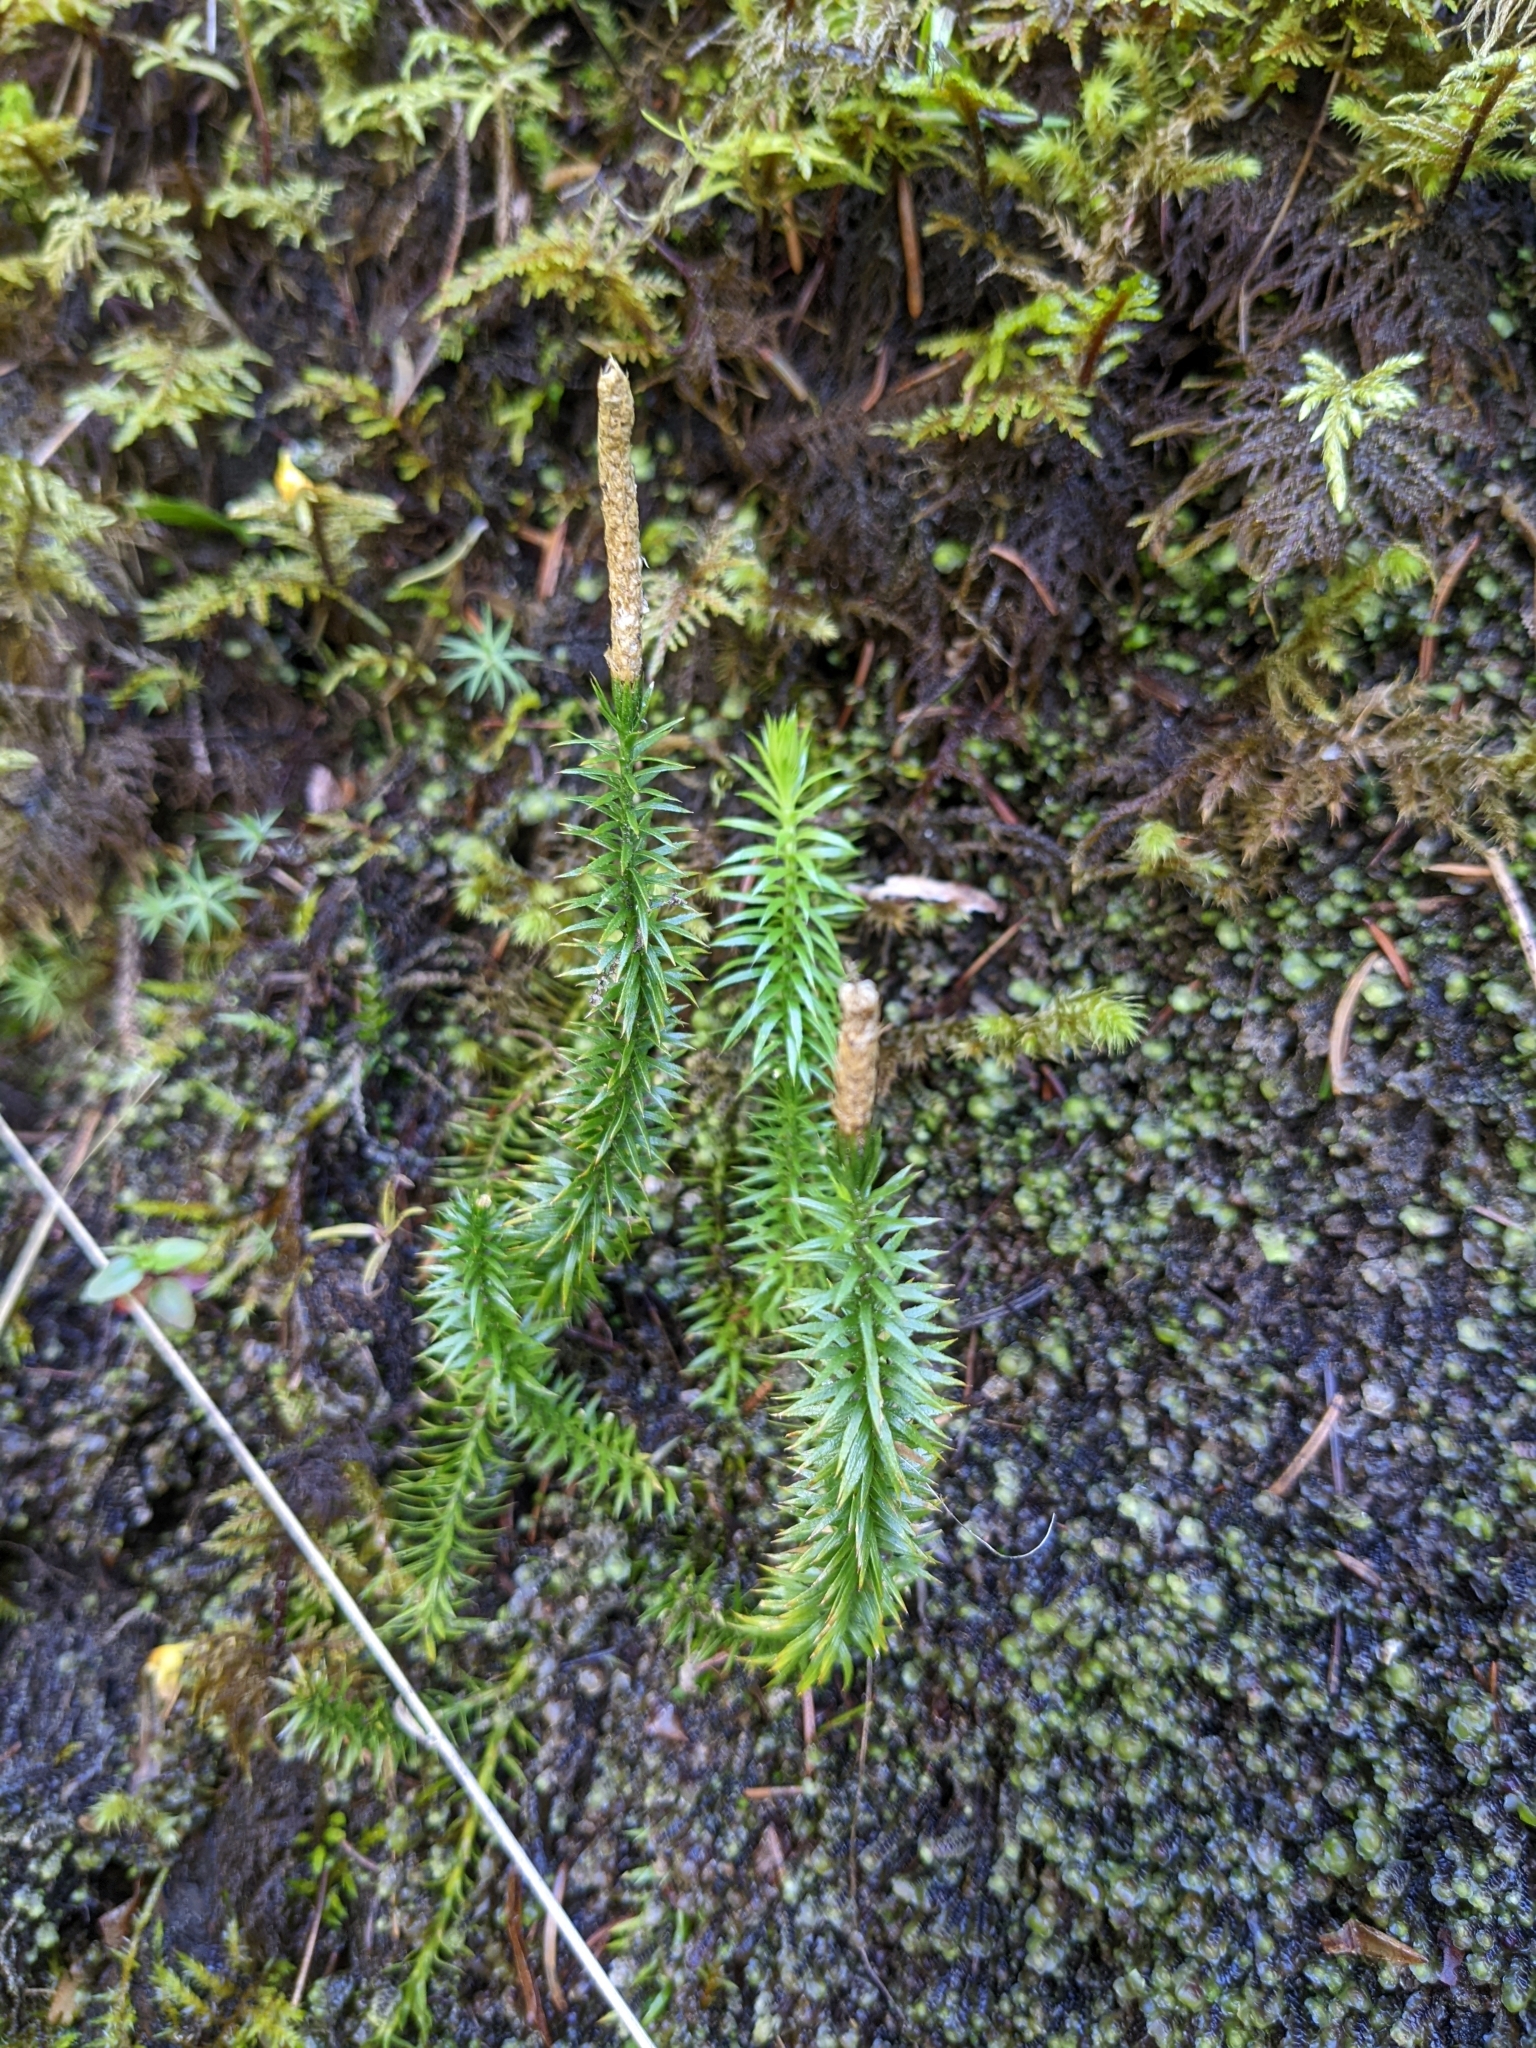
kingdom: Plantae
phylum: Tracheophyta
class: Lycopodiopsida
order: Lycopodiales
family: Lycopodiaceae
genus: Spinulum
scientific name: Spinulum annotinum
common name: Interrupted club-moss
